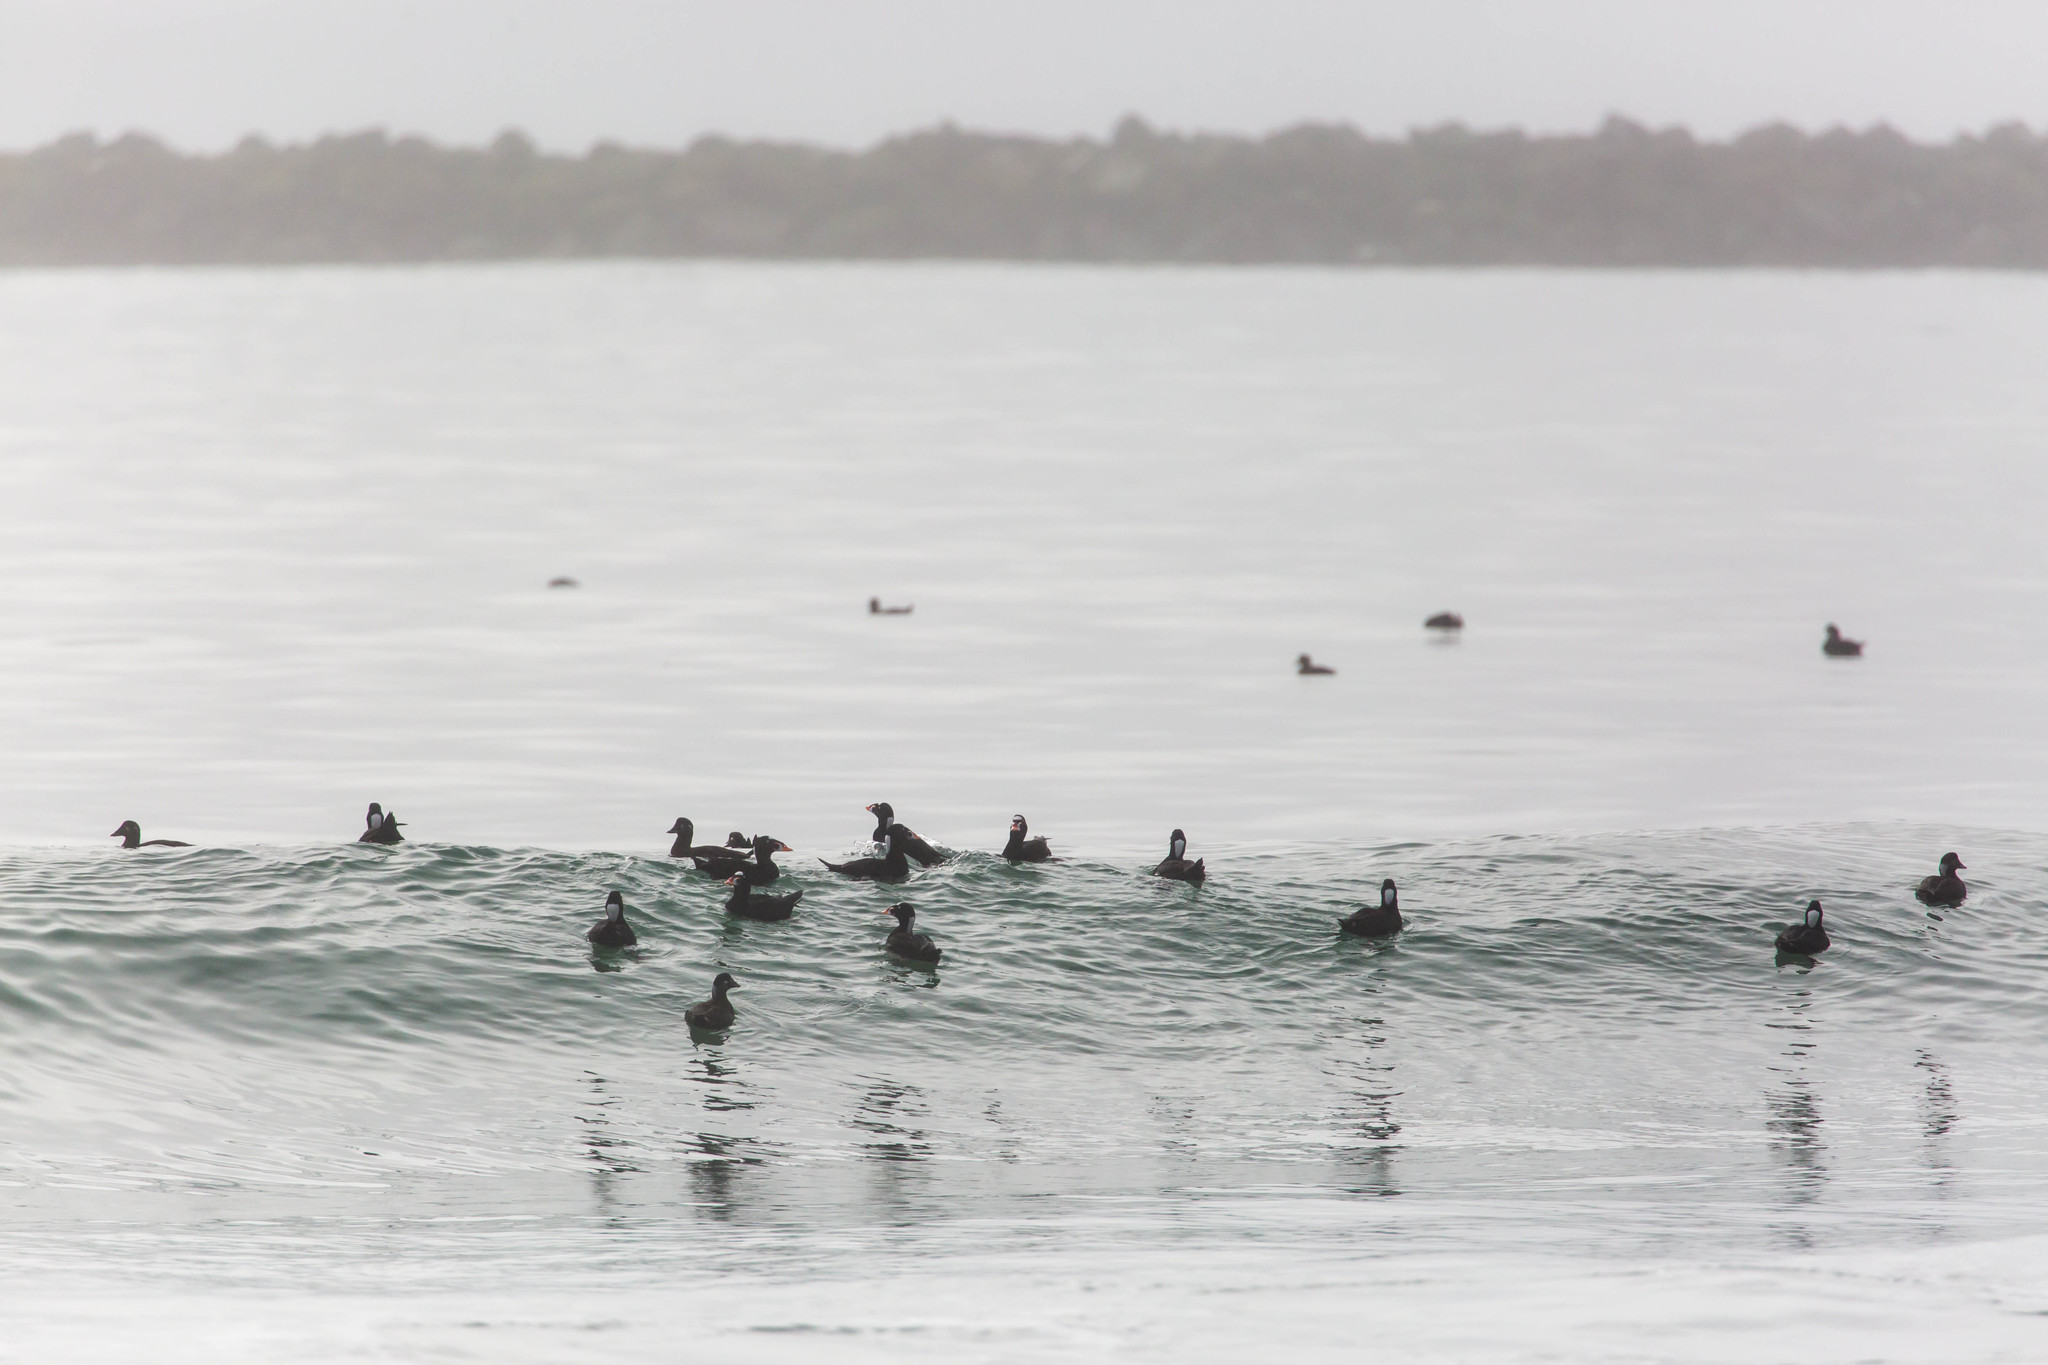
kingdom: Animalia
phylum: Chordata
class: Aves
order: Anseriformes
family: Anatidae
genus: Melanitta
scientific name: Melanitta perspicillata
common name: Surf scoter
